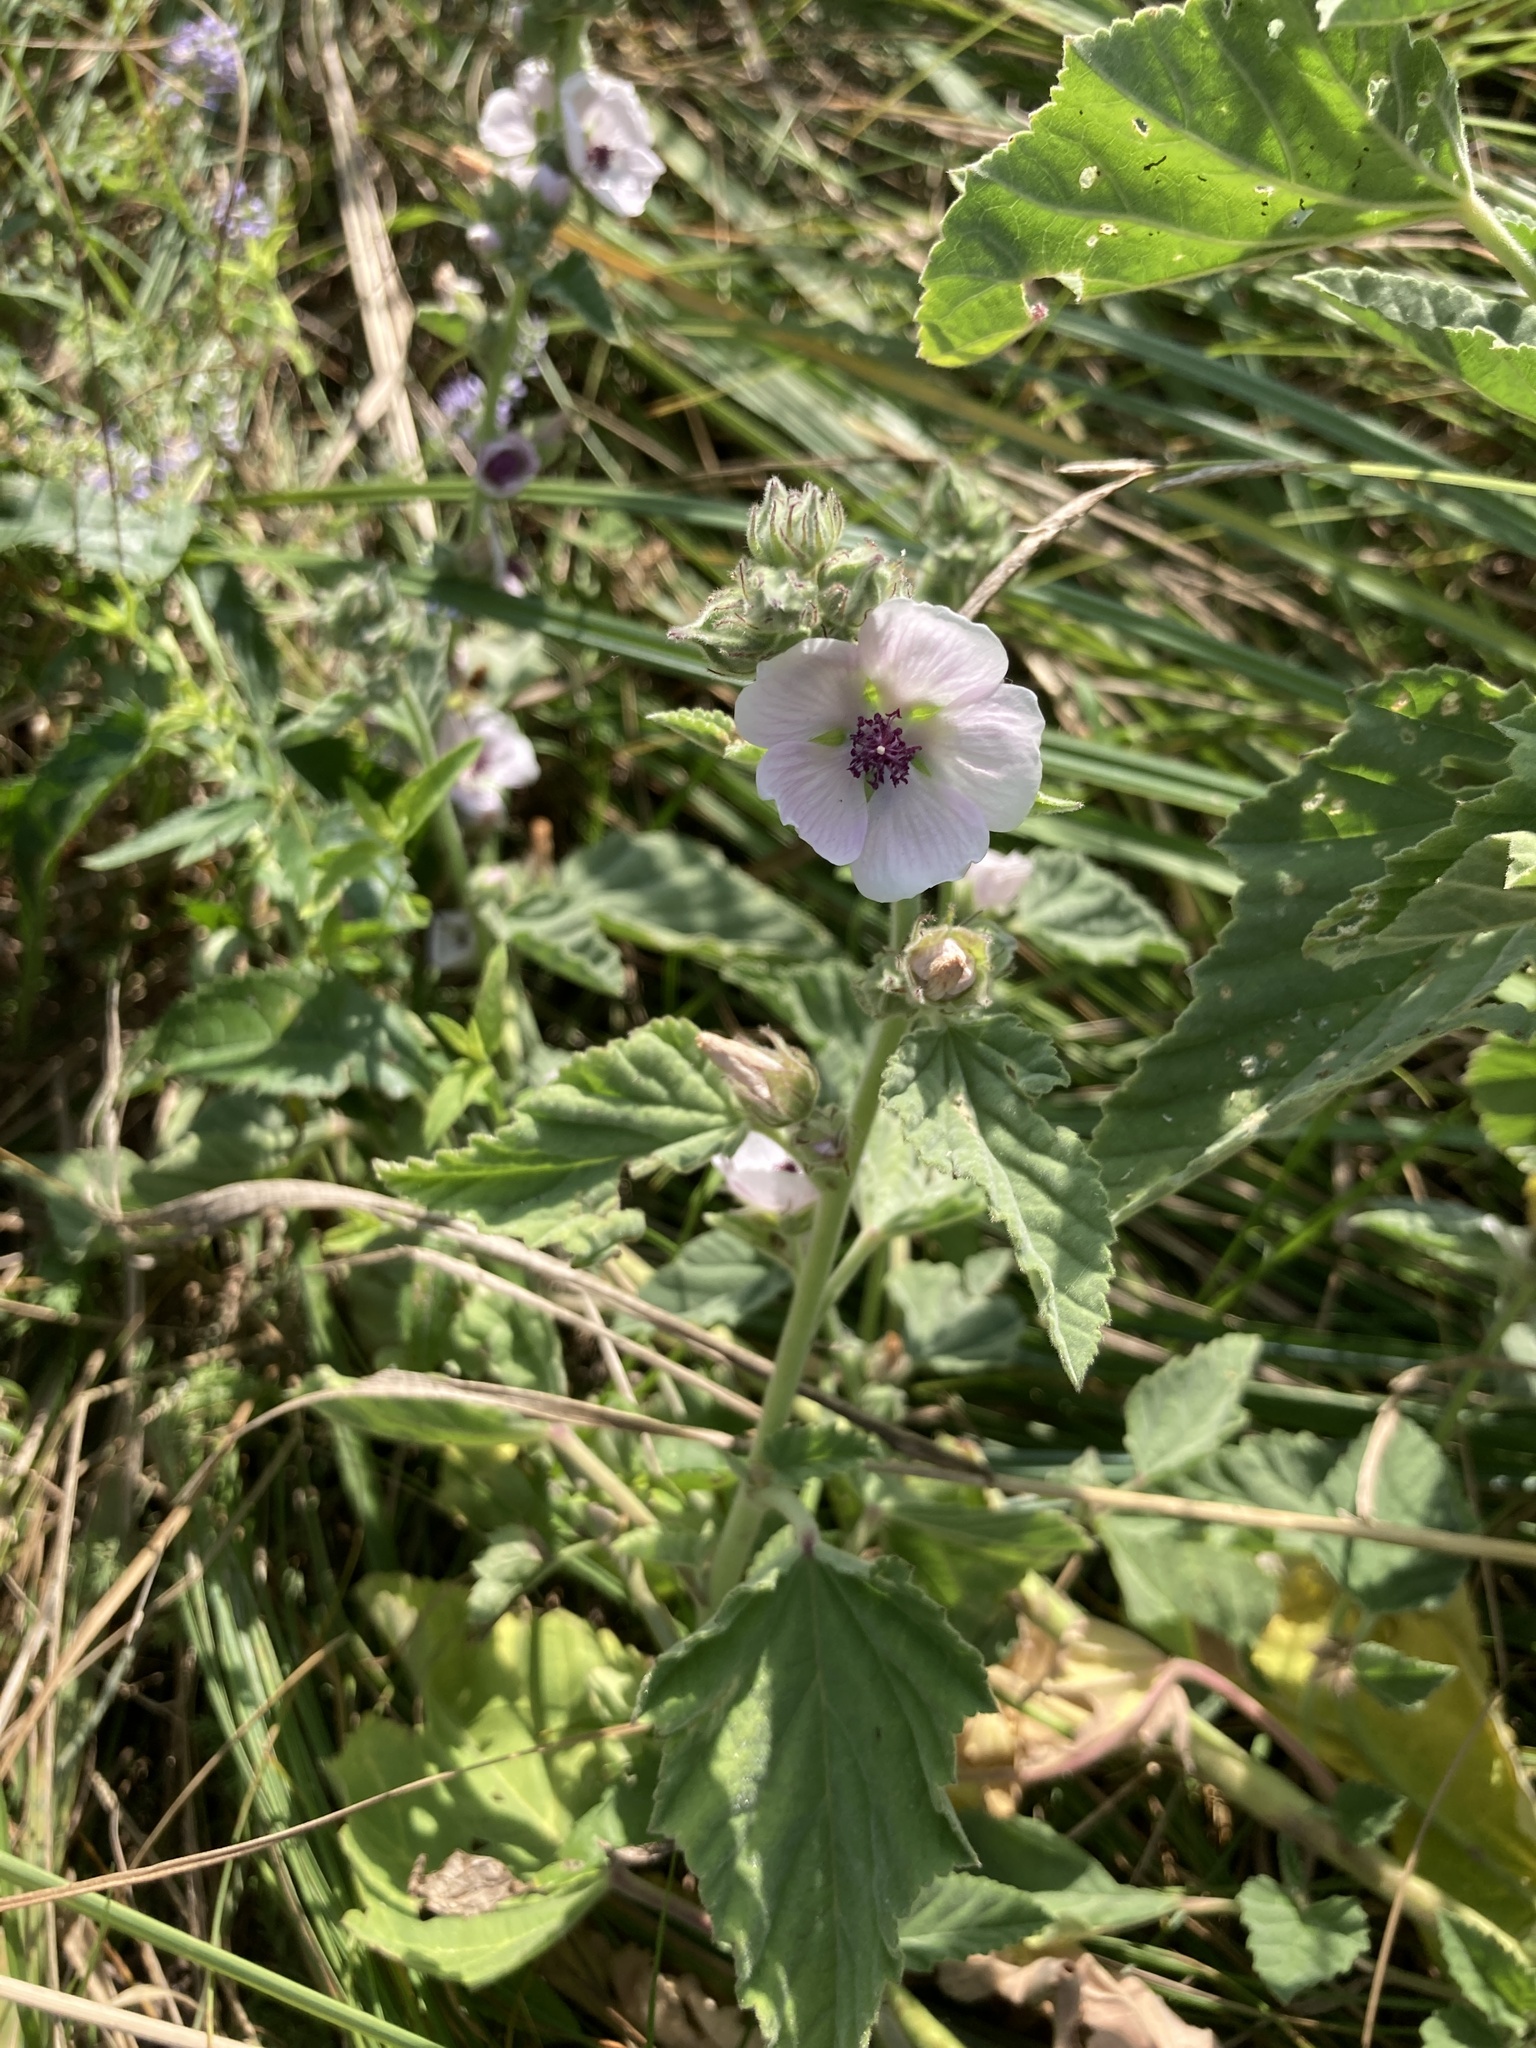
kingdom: Plantae
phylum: Tracheophyta
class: Magnoliopsida
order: Malvales
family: Malvaceae
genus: Althaea
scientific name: Althaea officinalis
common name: Marsh-mallow
